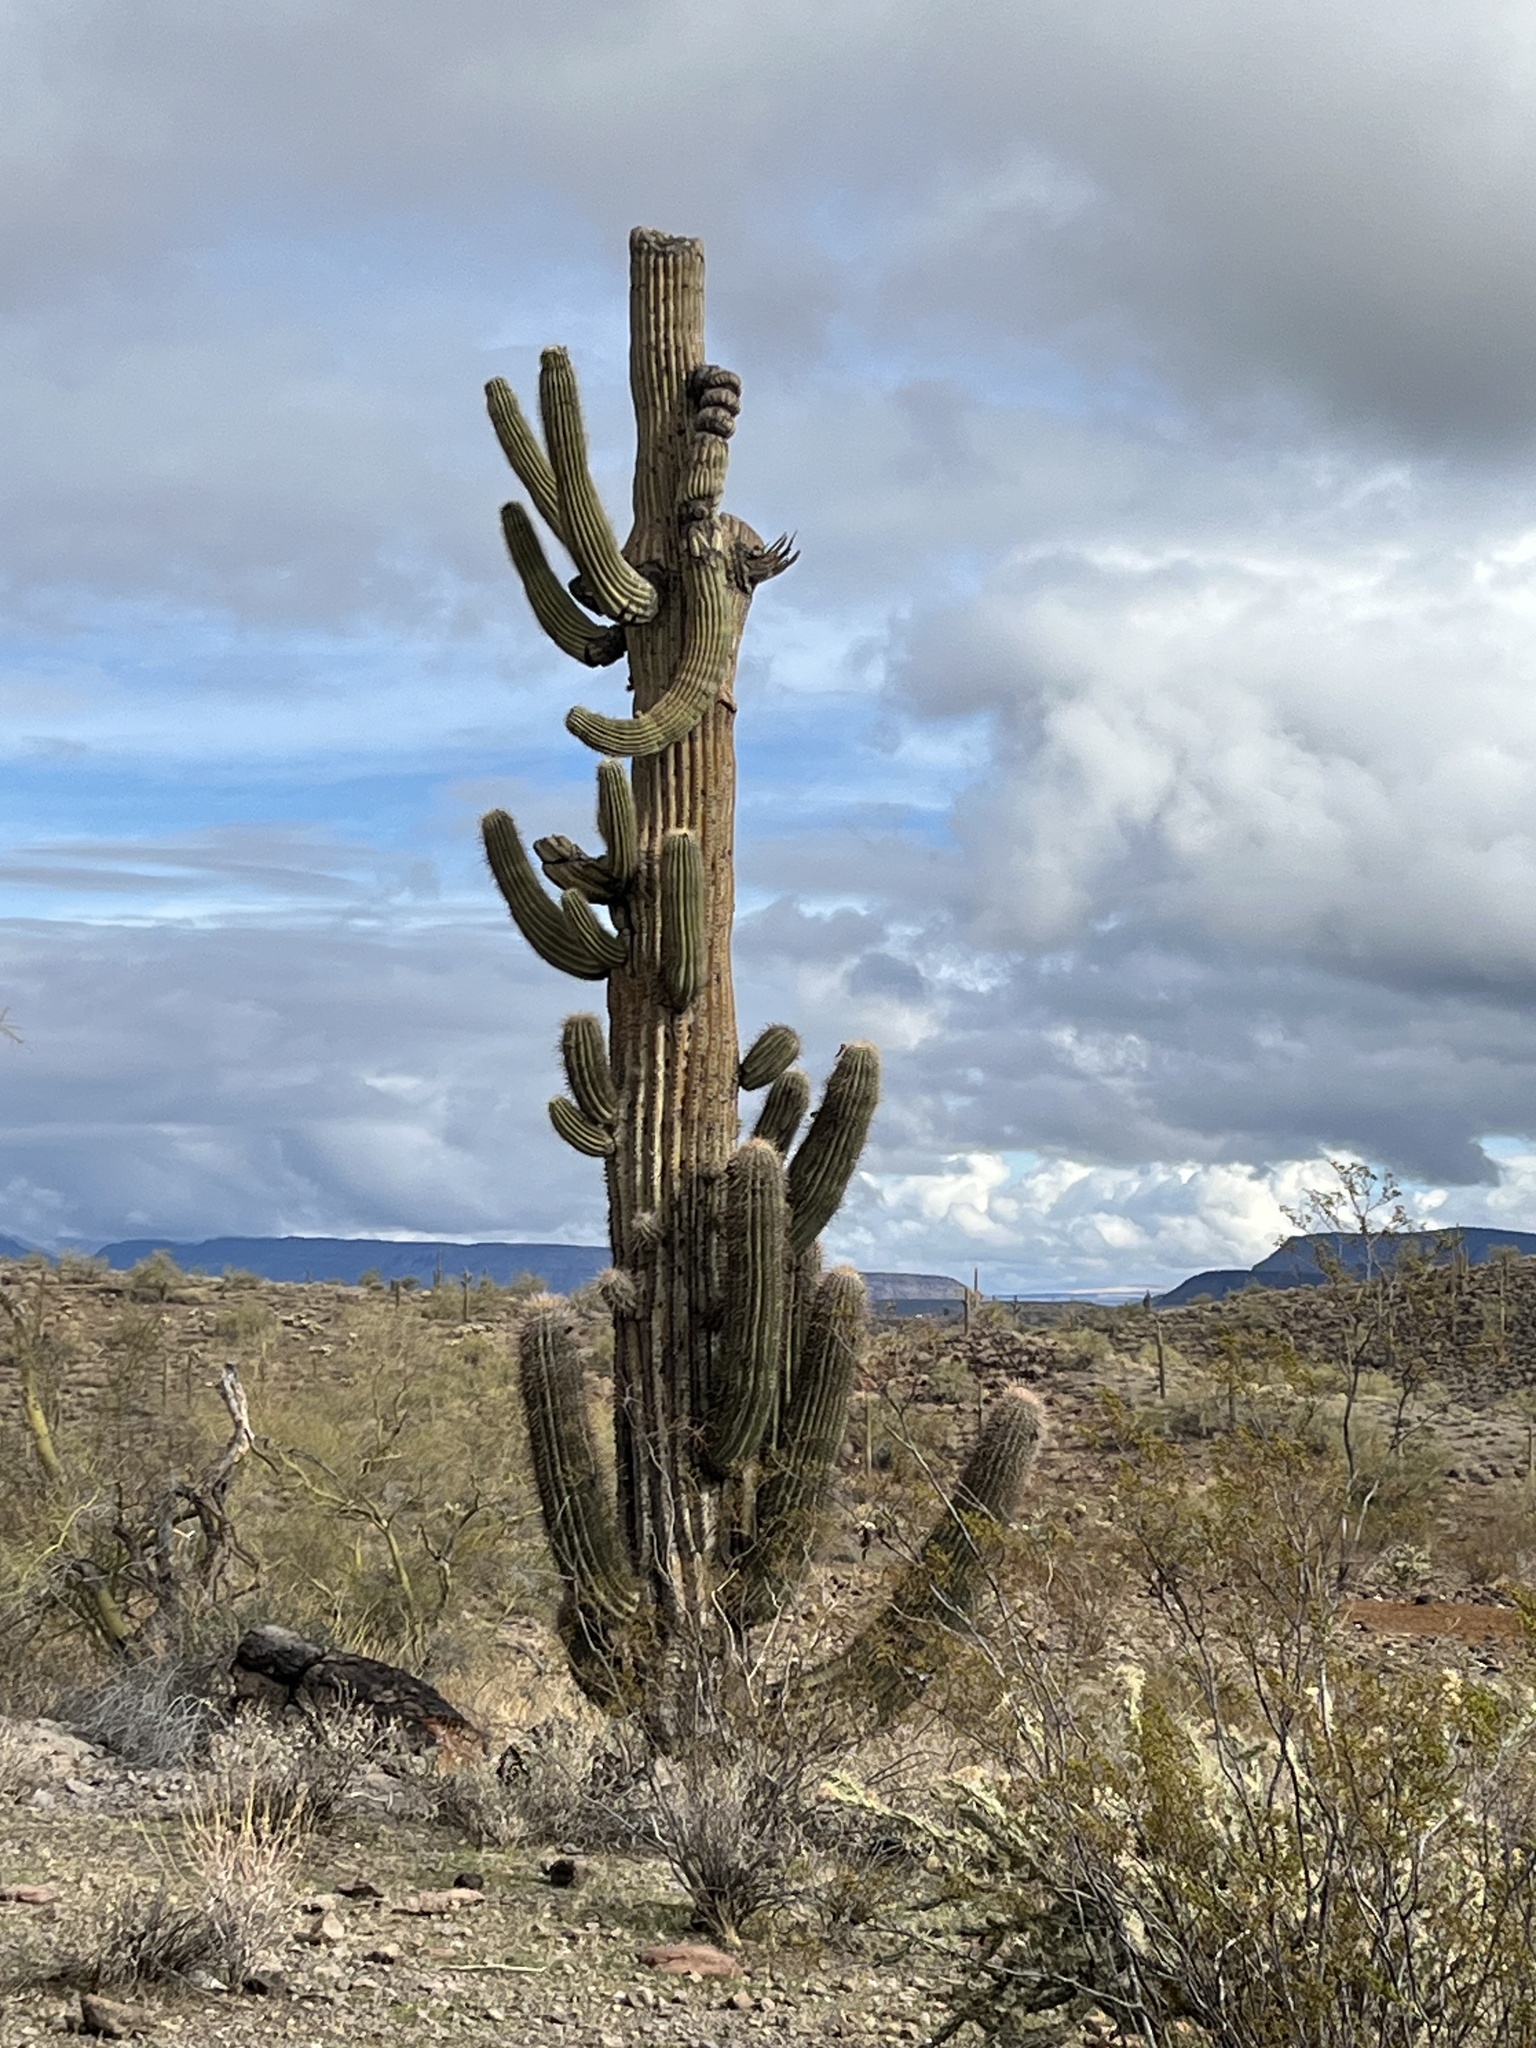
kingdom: Plantae
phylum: Tracheophyta
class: Magnoliopsida
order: Caryophyllales
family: Cactaceae
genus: Carnegiea
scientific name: Carnegiea gigantea
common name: Saguaro
